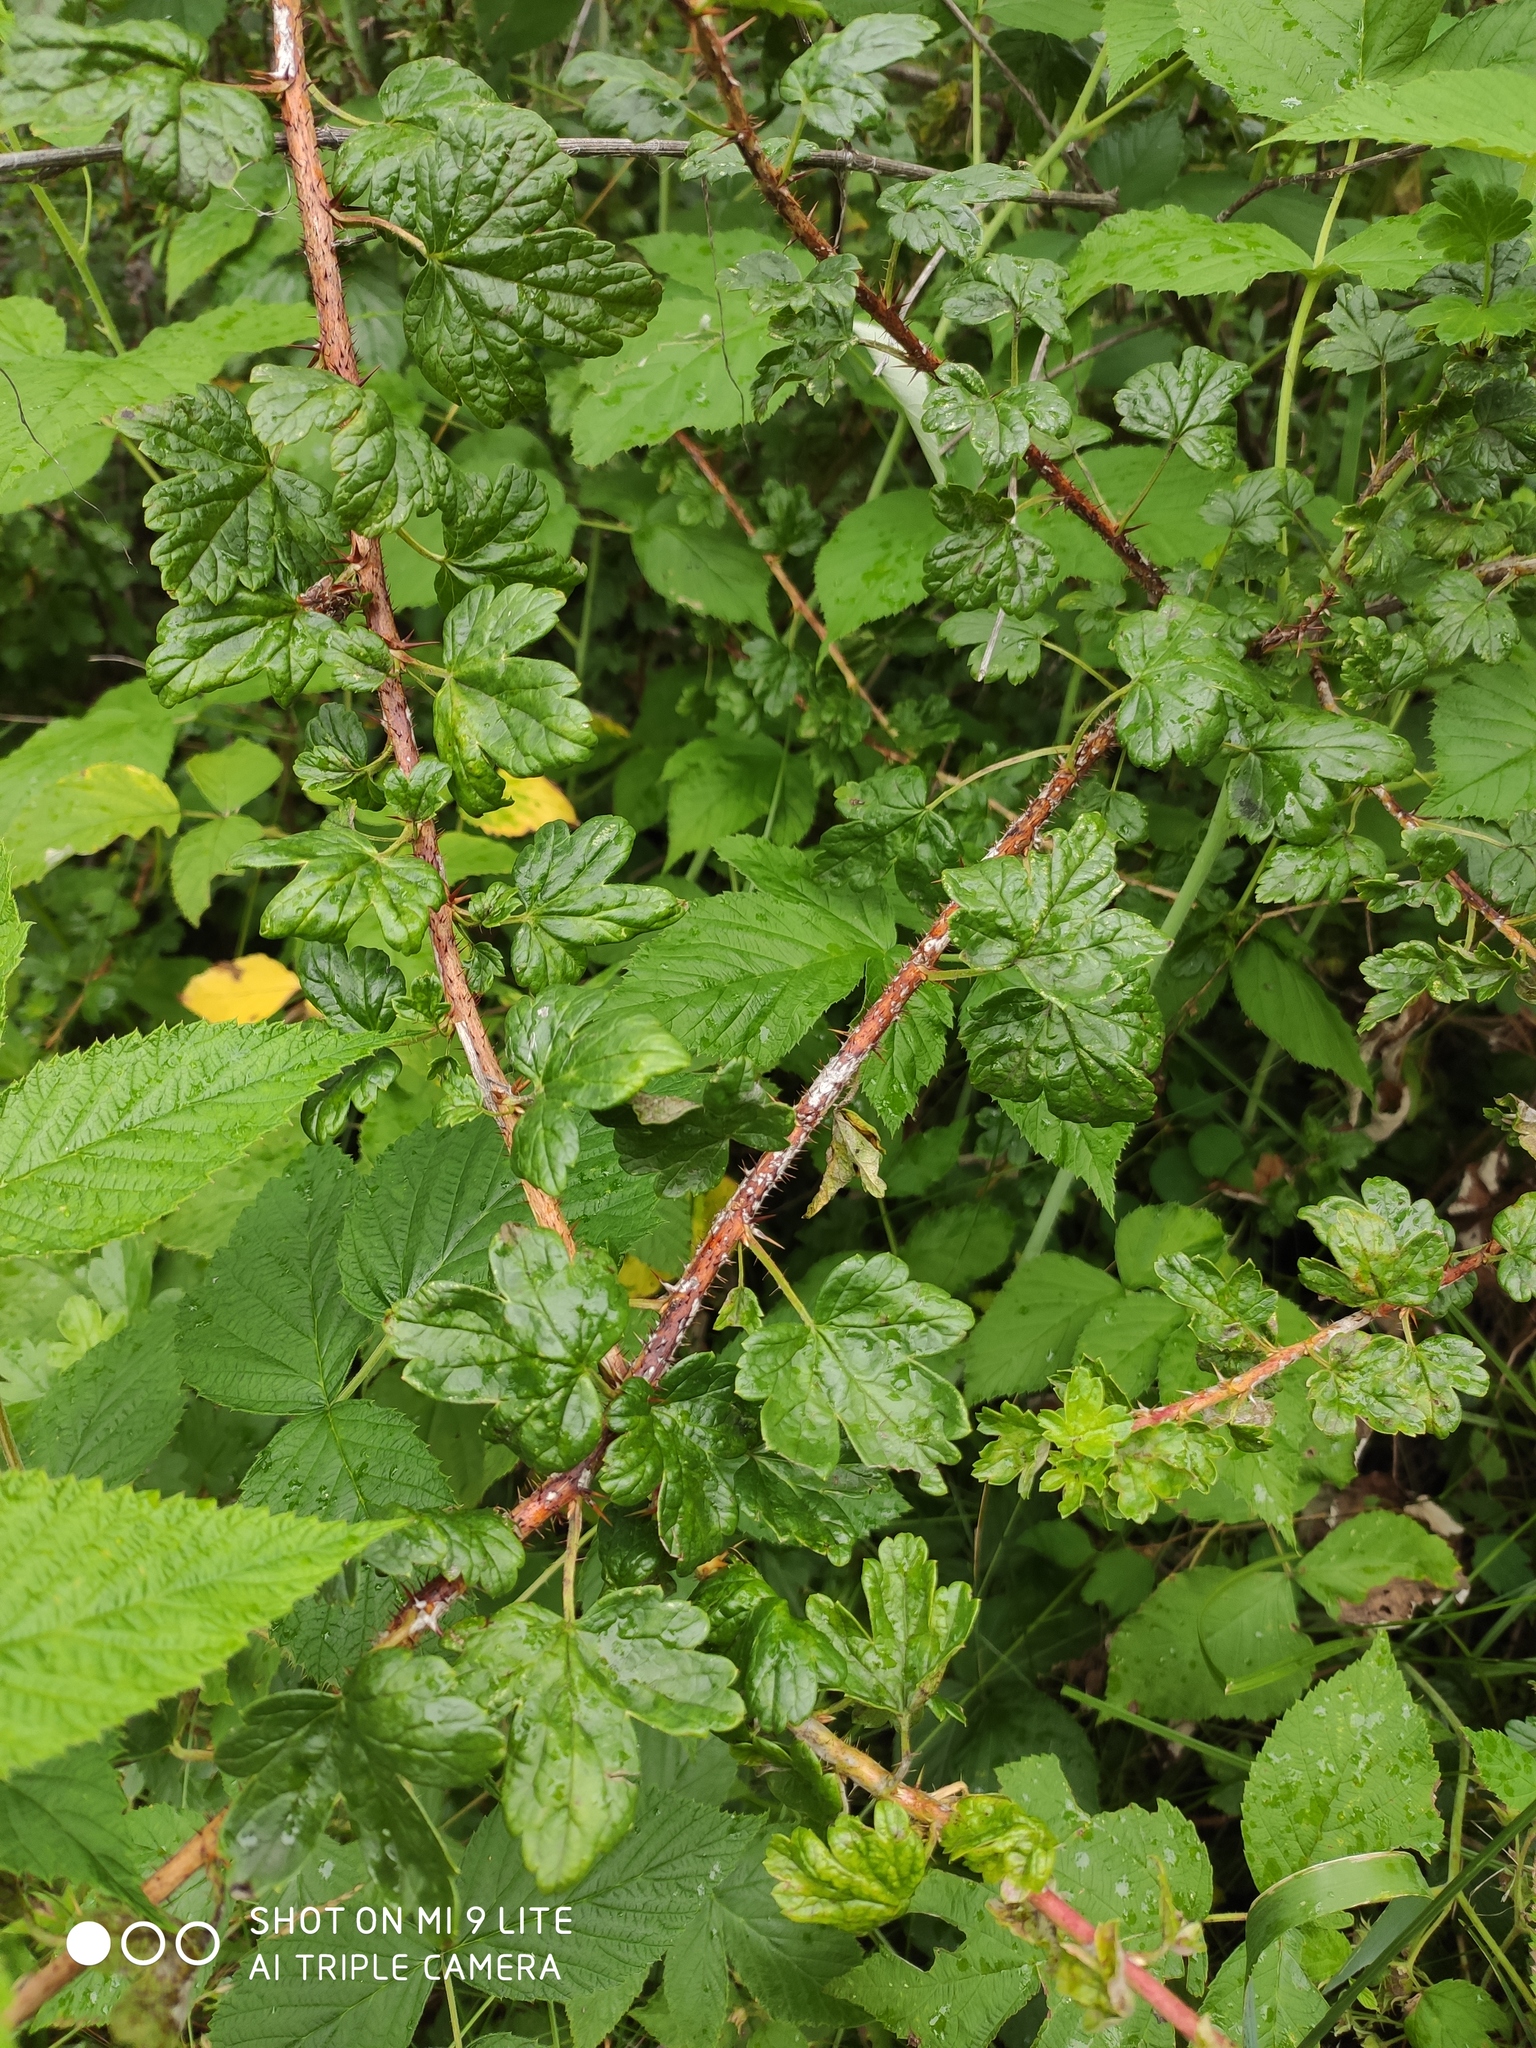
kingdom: Plantae
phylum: Tracheophyta
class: Magnoliopsida
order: Saxifragales
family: Grossulariaceae
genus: Ribes
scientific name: Ribes aciculare
